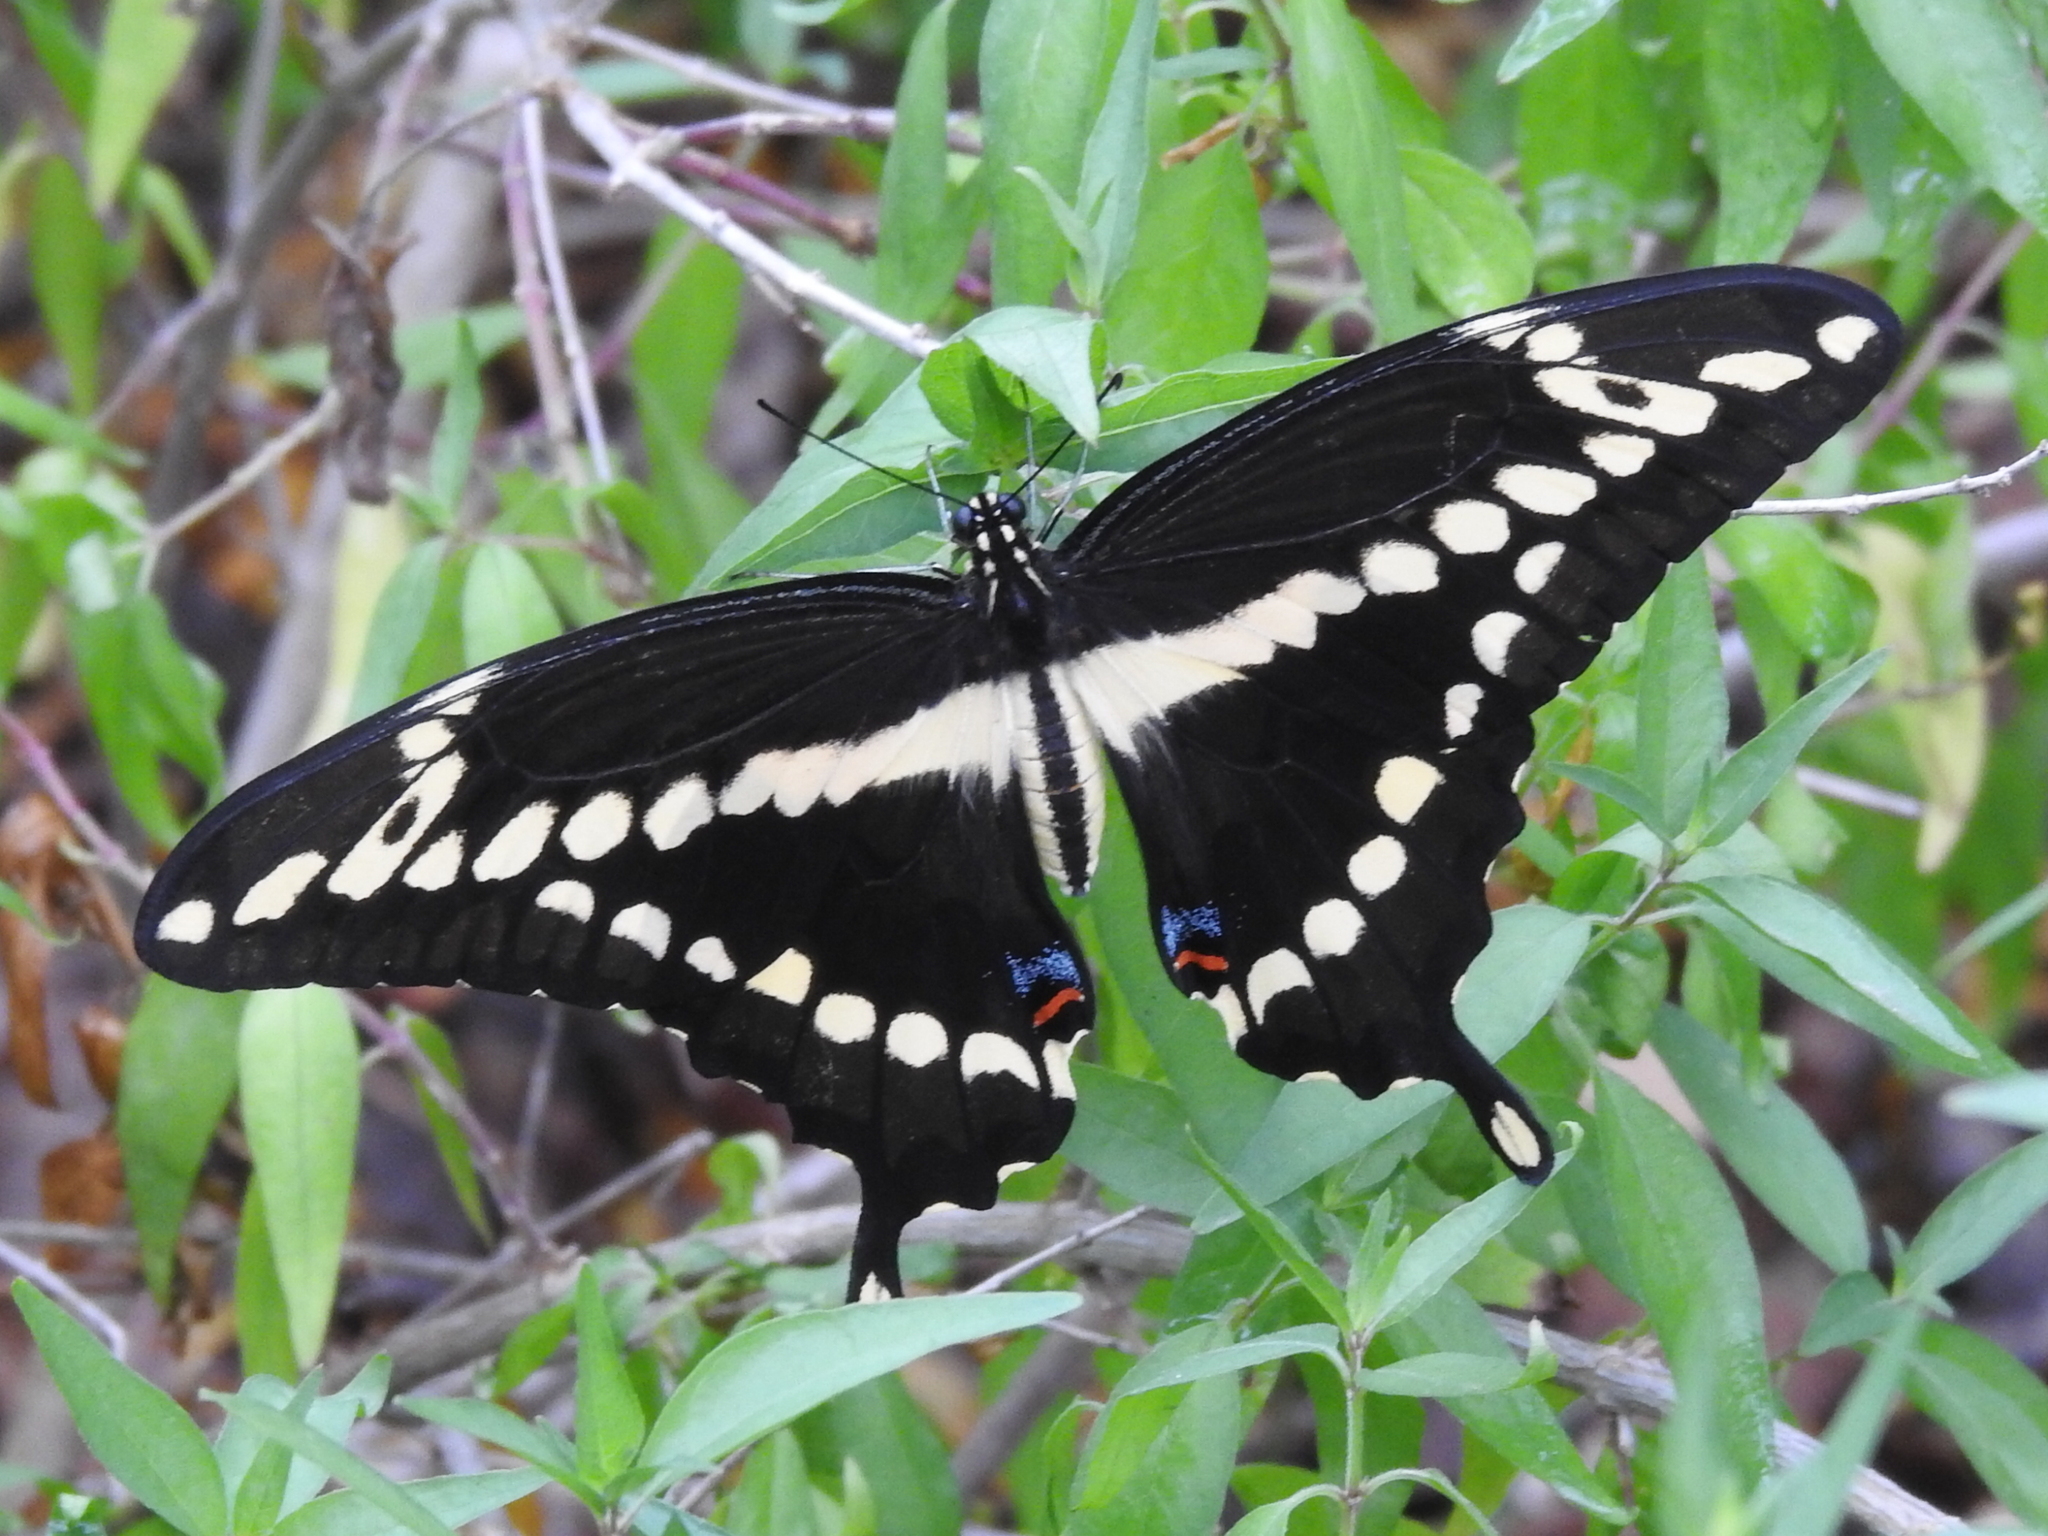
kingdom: Animalia
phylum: Arthropoda
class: Insecta
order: Lepidoptera
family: Papilionidae
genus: Papilio
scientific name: Papilio cresphontes
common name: Giant swallowtail
